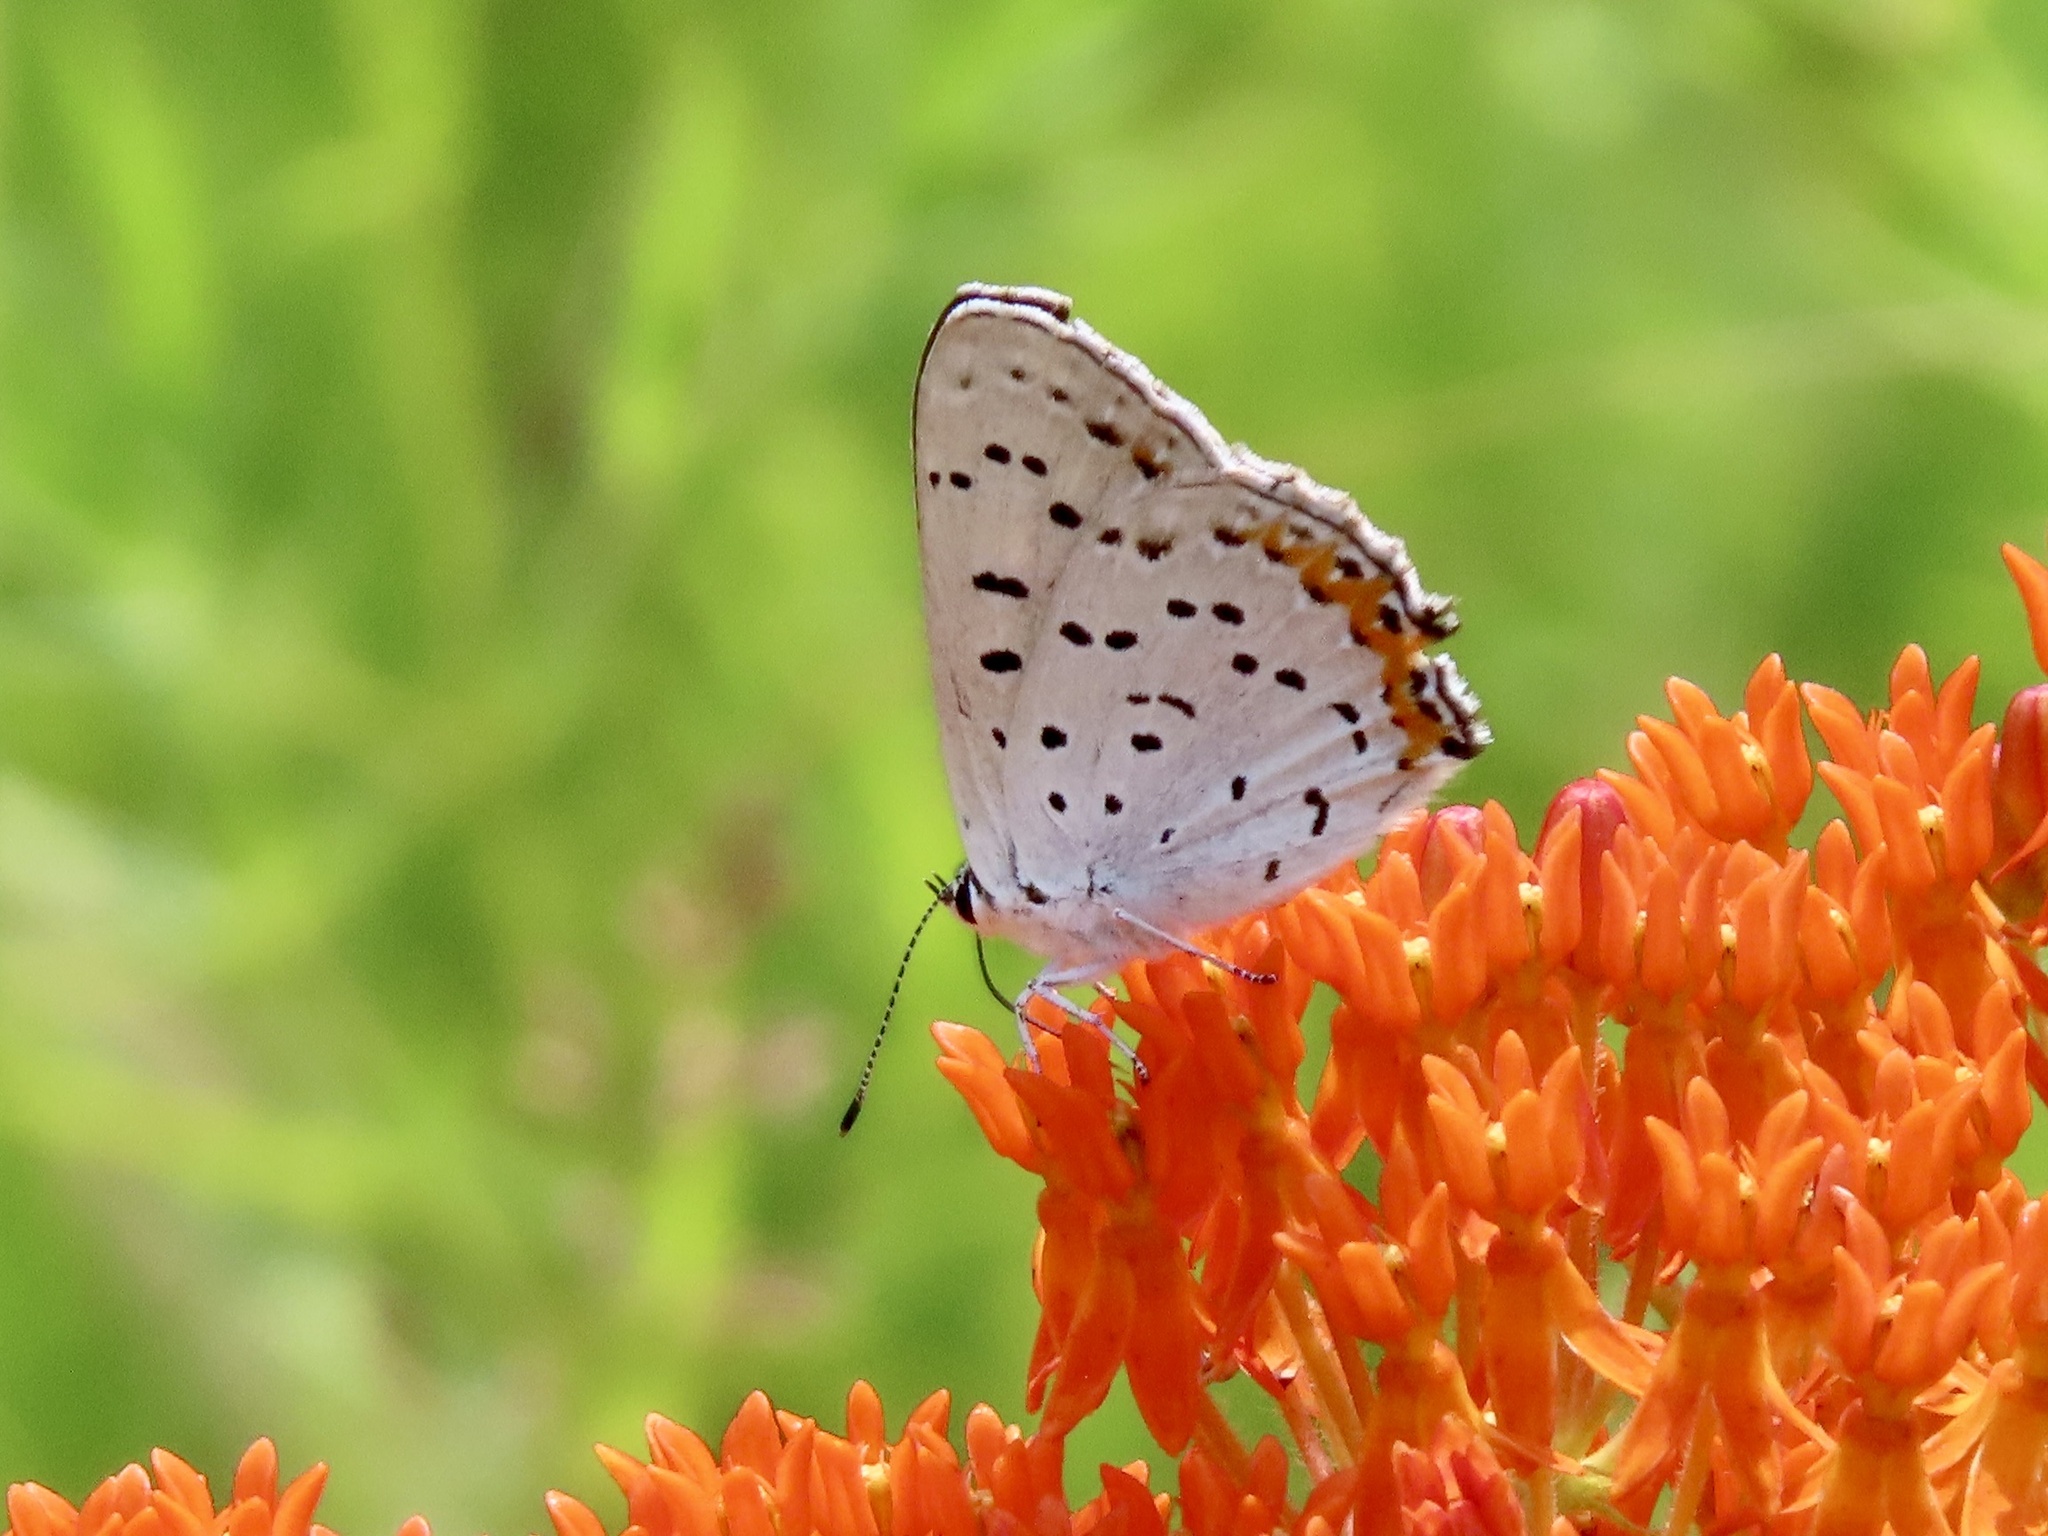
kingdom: Animalia
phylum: Arthropoda
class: Insecta
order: Lepidoptera
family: Lycaenidae
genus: Tharsalea
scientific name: Tharsalea dione
